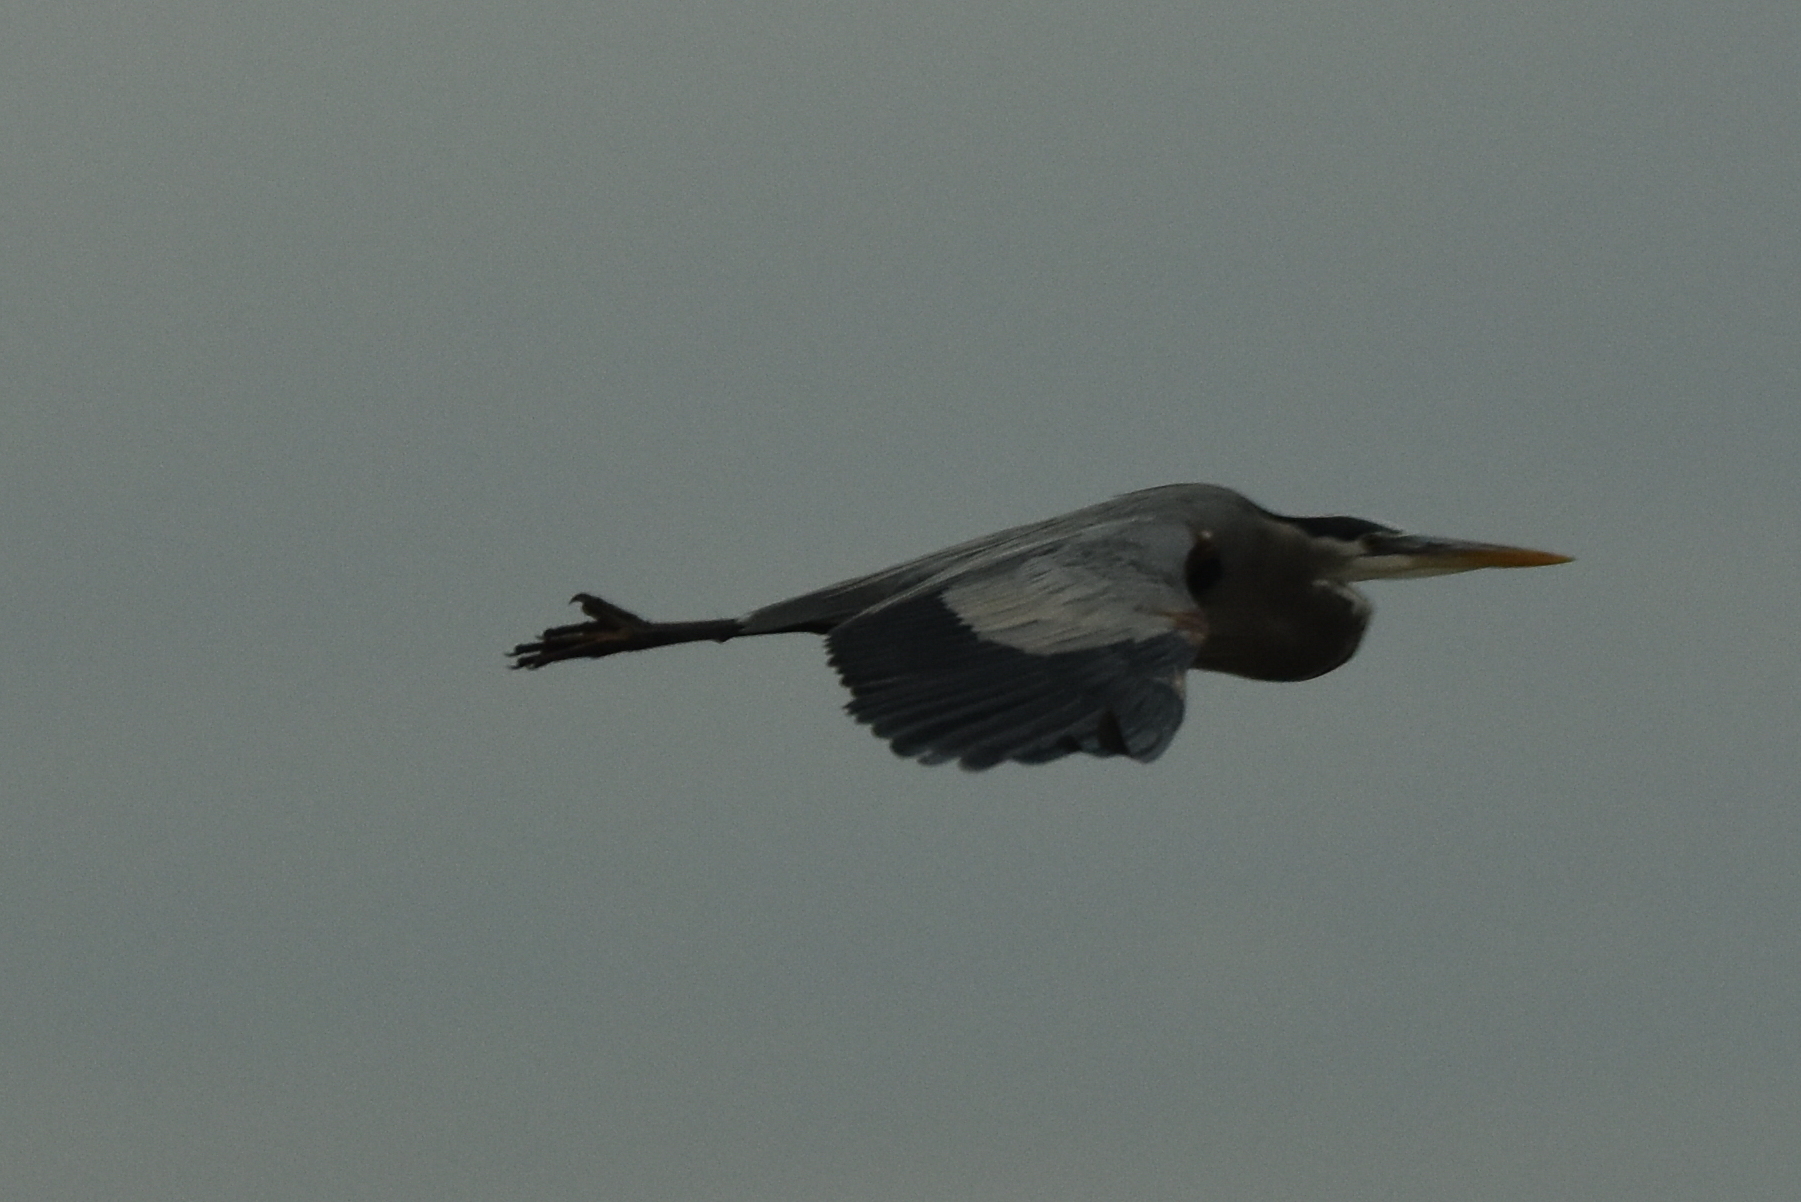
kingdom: Animalia
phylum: Chordata
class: Aves
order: Pelecaniformes
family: Ardeidae
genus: Ardea
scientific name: Ardea herodias
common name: Great blue heron
